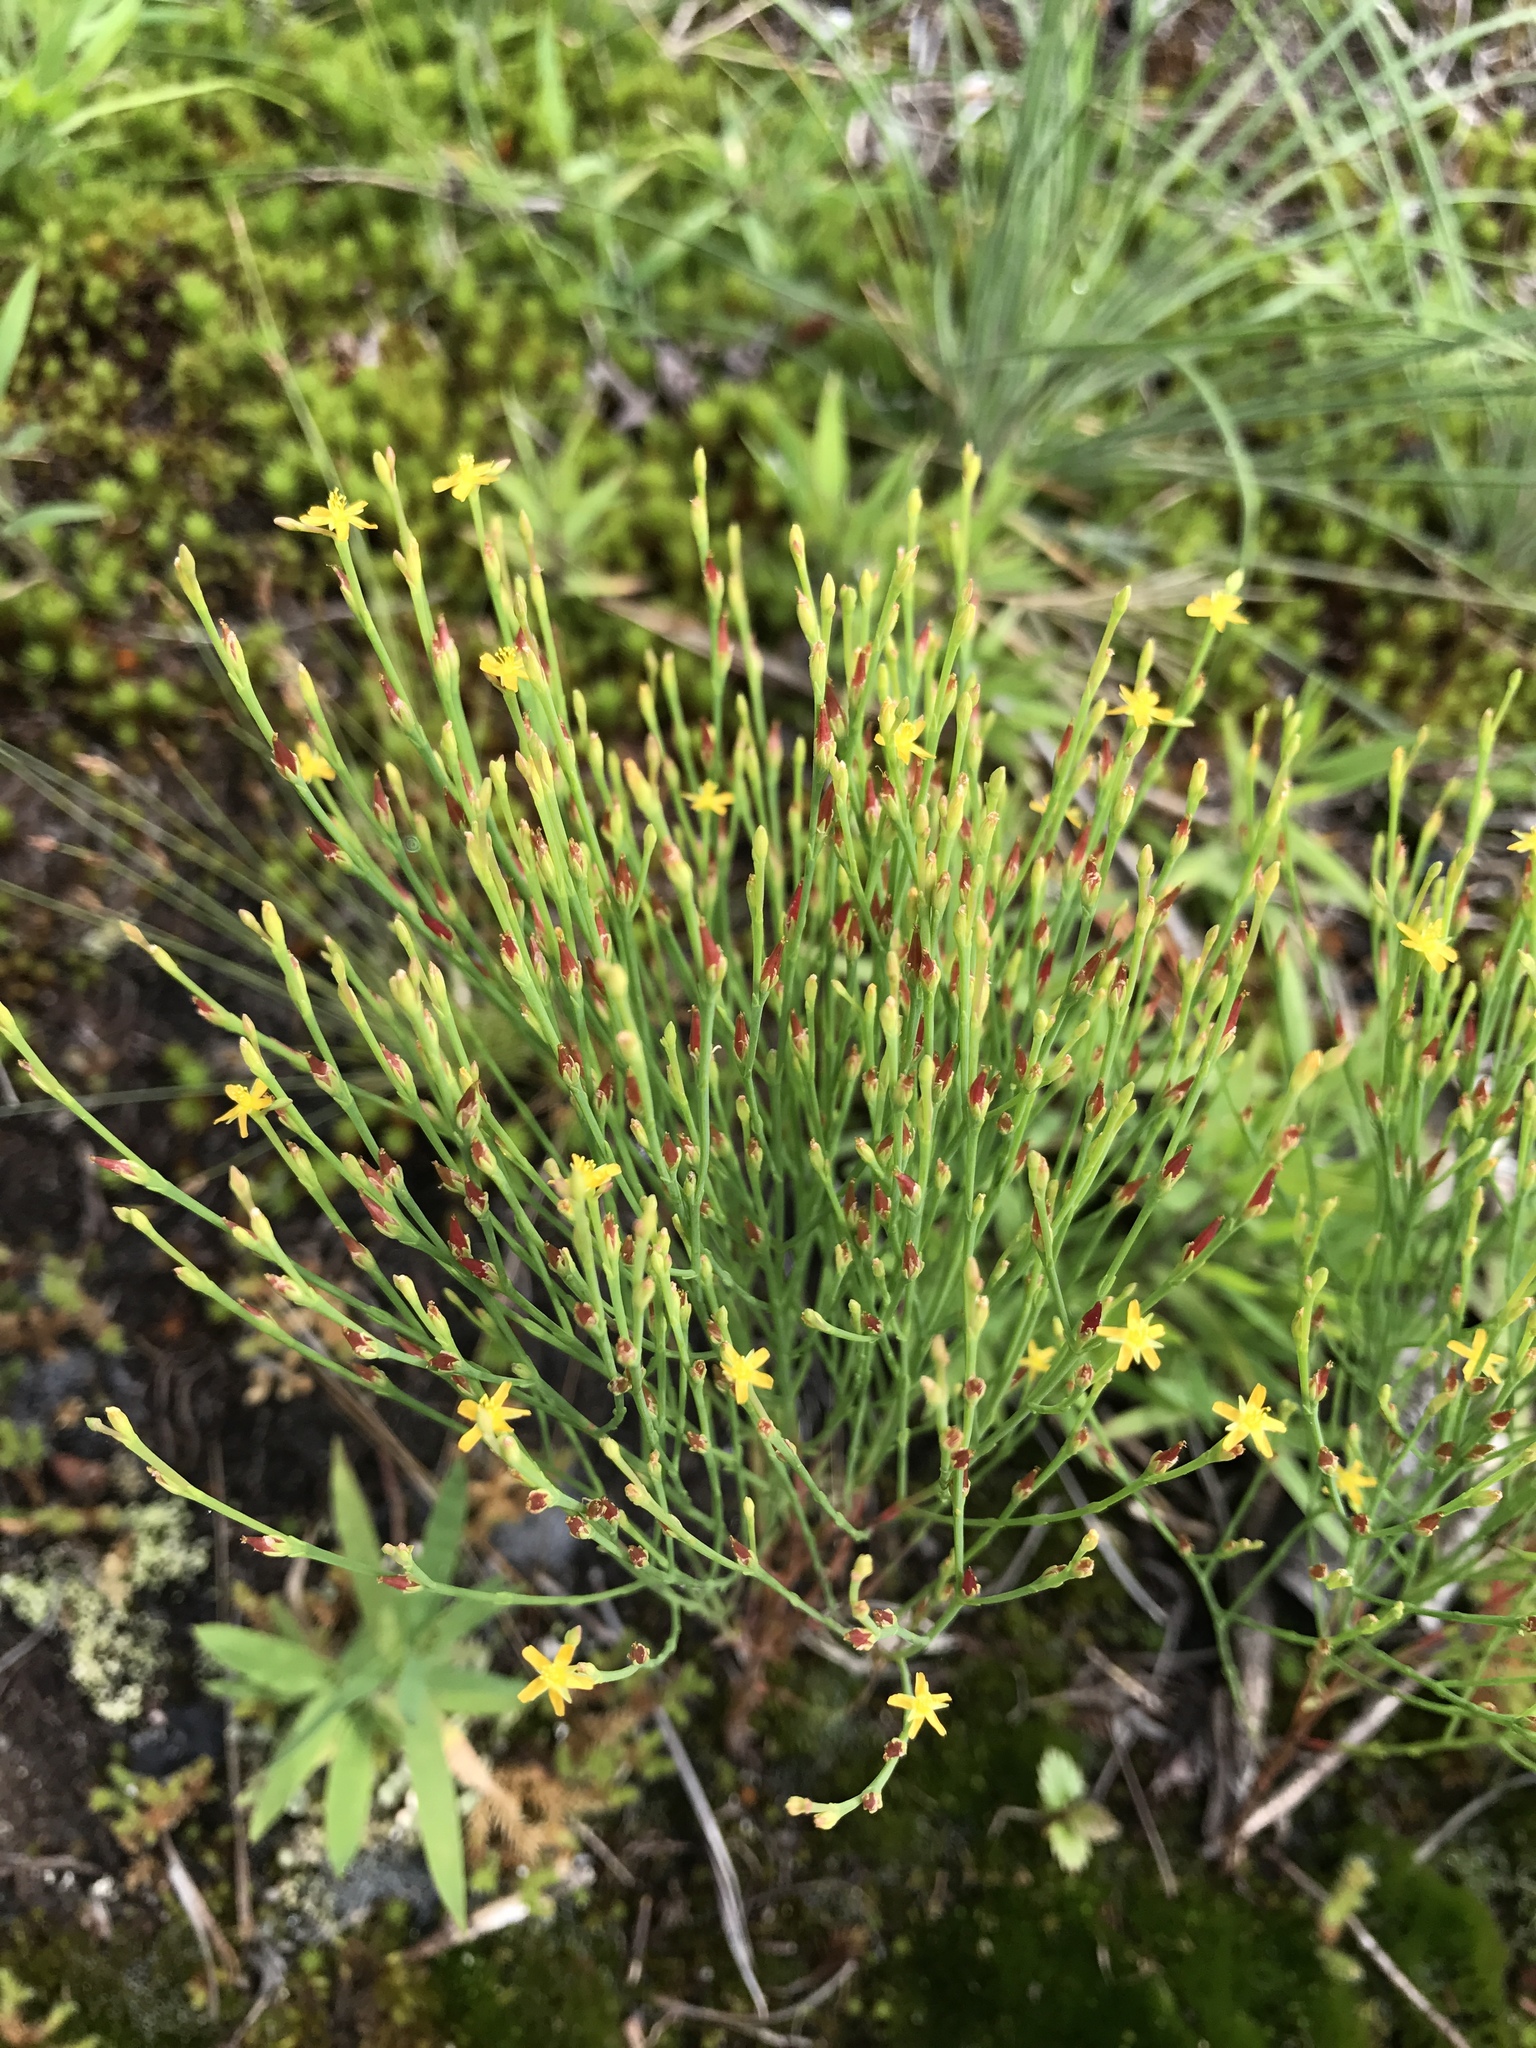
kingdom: Plantae
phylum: Tracheophyta
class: Magnoliopsida
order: Malpighiales
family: Hypericaceae
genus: Hypericum
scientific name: Hypericum gentianoides
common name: Gentian-leaved st. john's-wort
